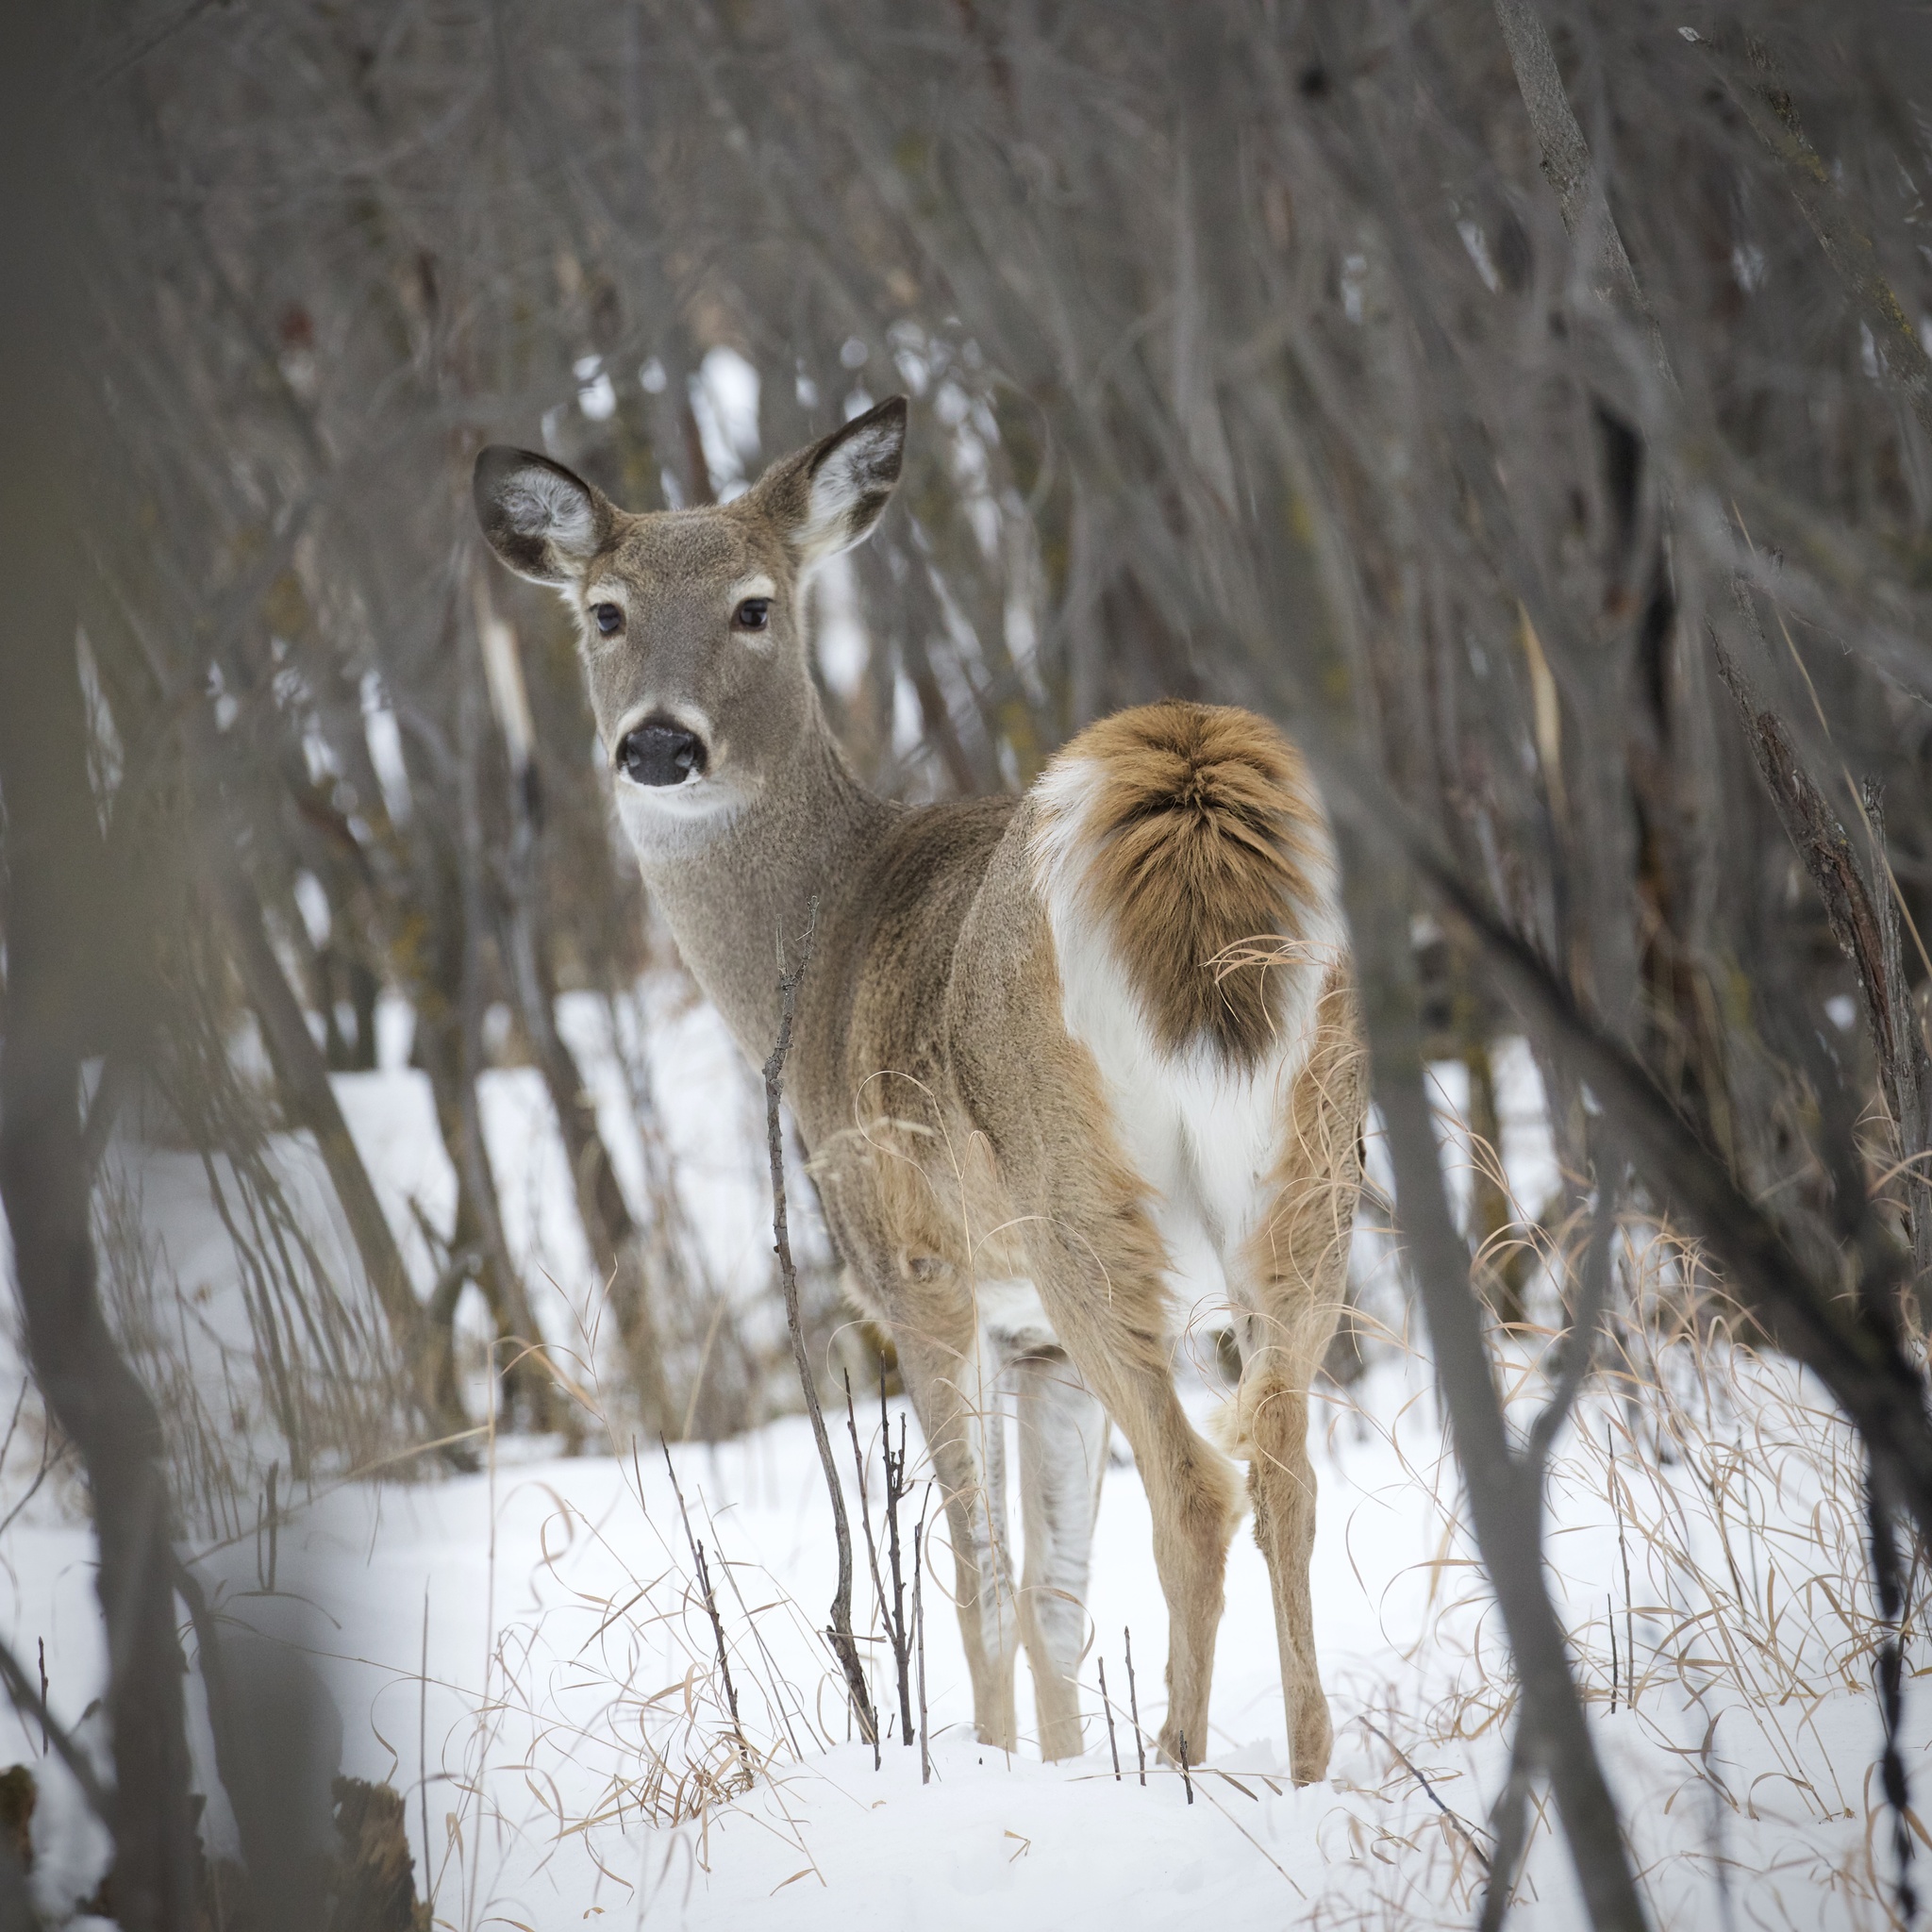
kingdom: Animalia
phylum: Chordata
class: Mammalia
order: Artiodactyla
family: Cervidae
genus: Odocoileus
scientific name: Odocoileus virginianus
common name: White-tailed deer
